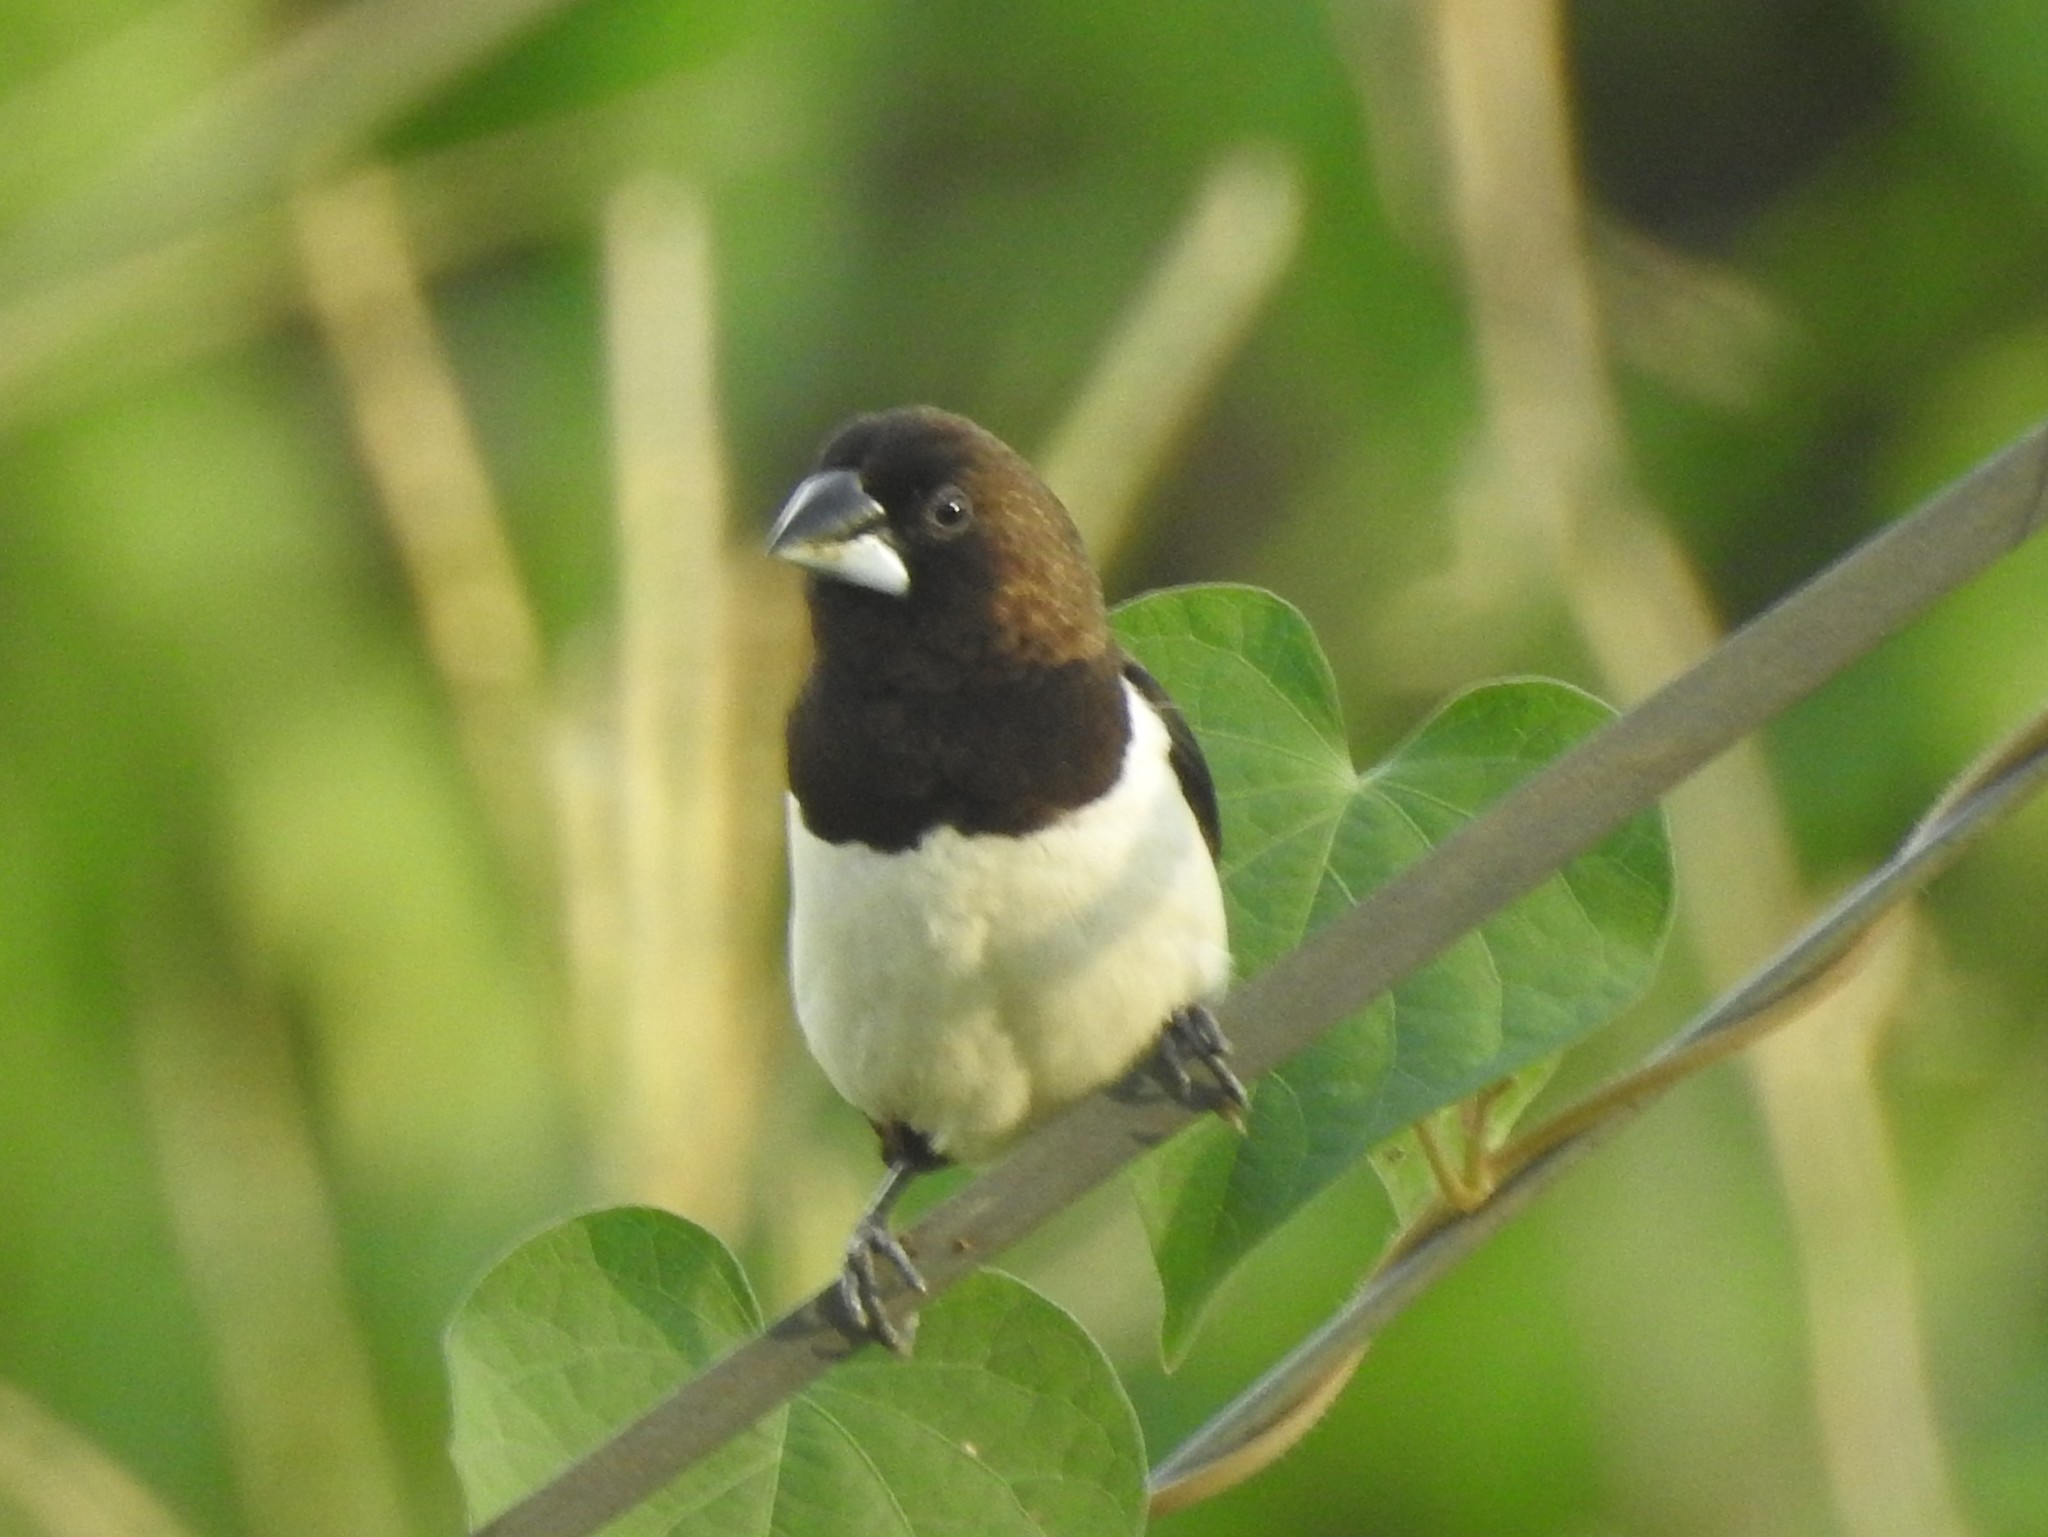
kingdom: Animalia
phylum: Chordata
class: Aves
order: Passeriformes
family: Estrildidae
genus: Lonchura
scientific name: Lonchura striata
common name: White-rumped munia
